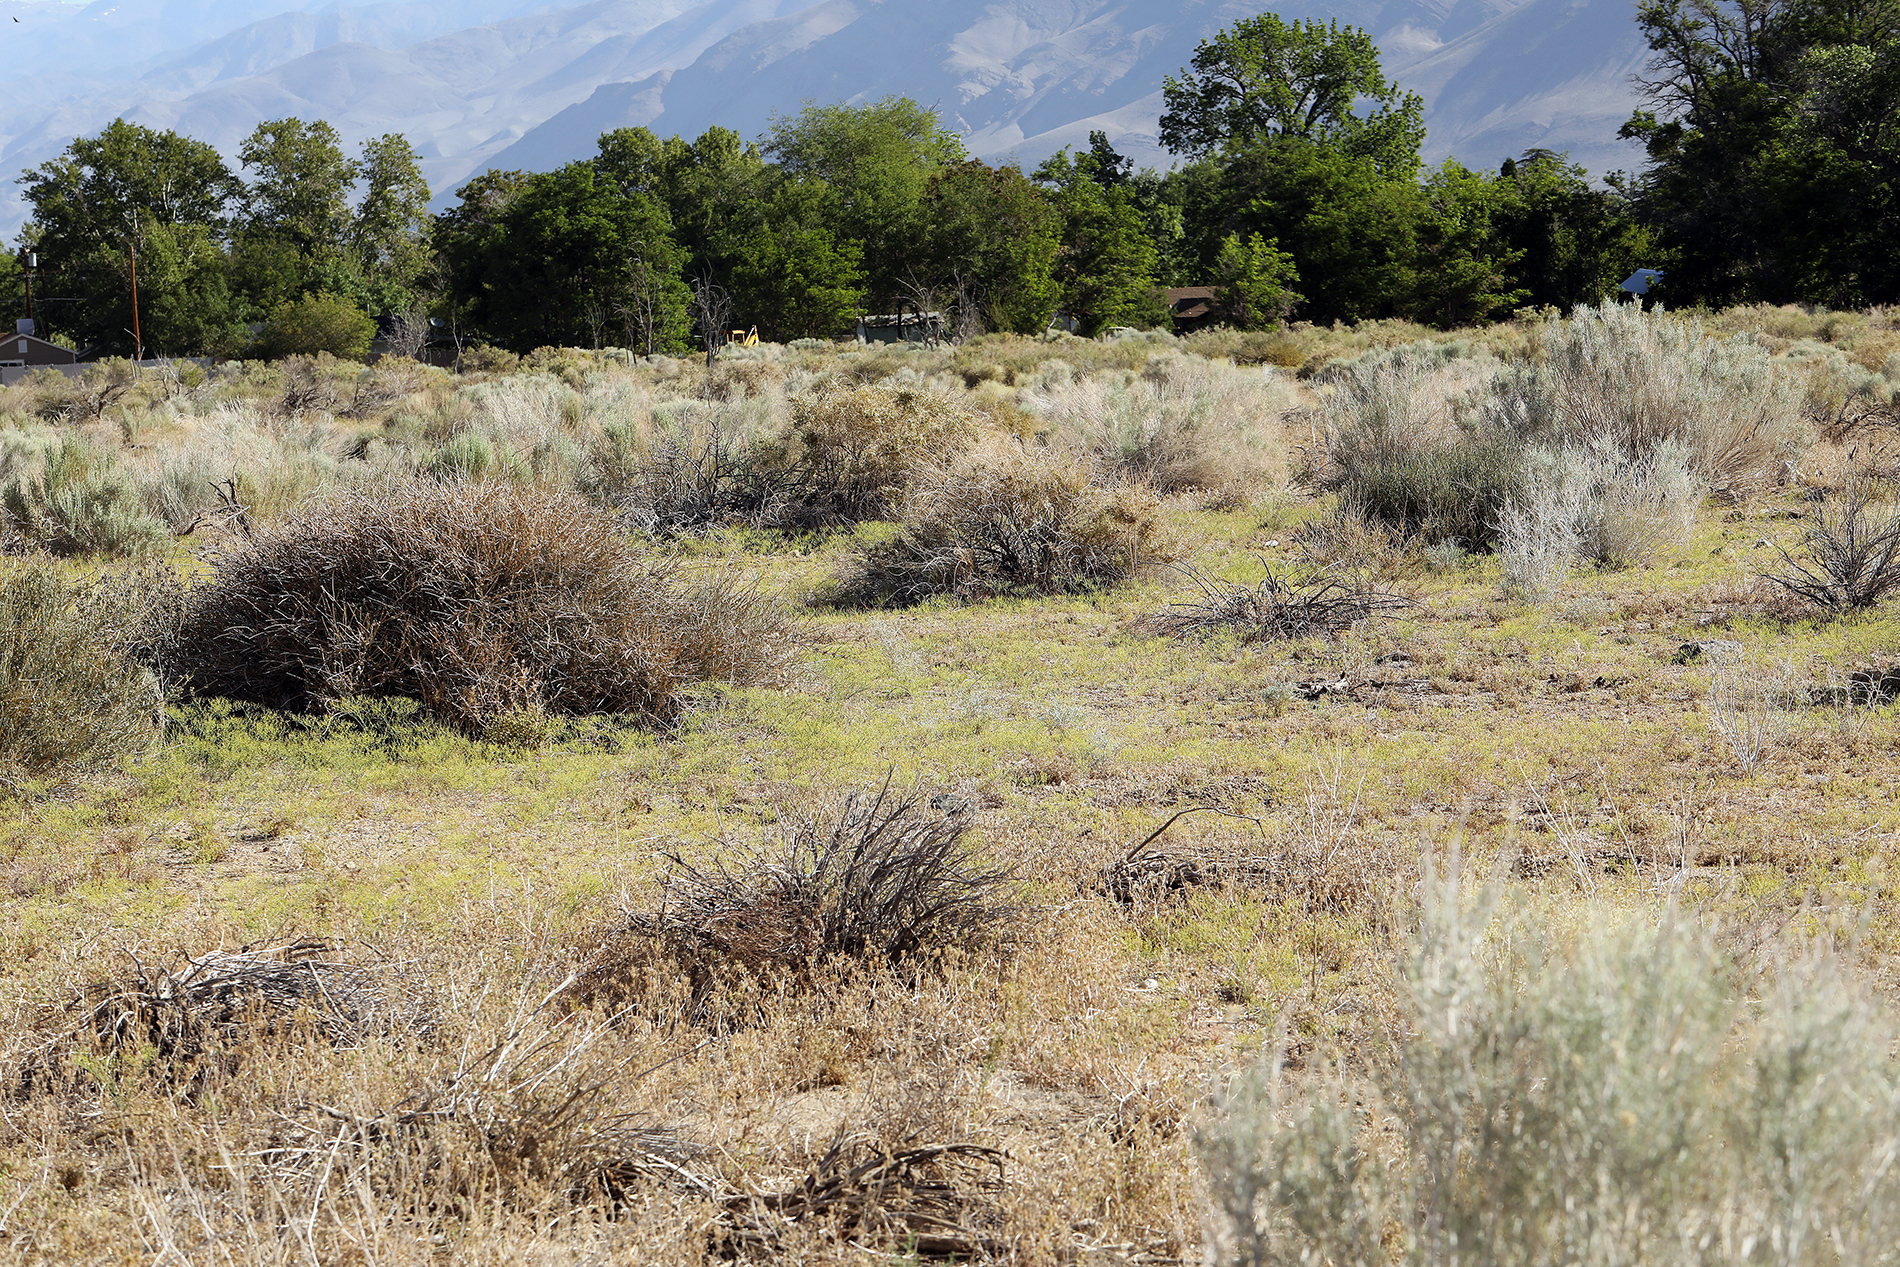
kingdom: Plantae
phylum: Tracheophyta
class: Magnoliopsida
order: Caryophyllales
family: Polygonaceae
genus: Eriogonum
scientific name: Eriogonum brachyanthum
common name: Short-flower wild buckwheat
